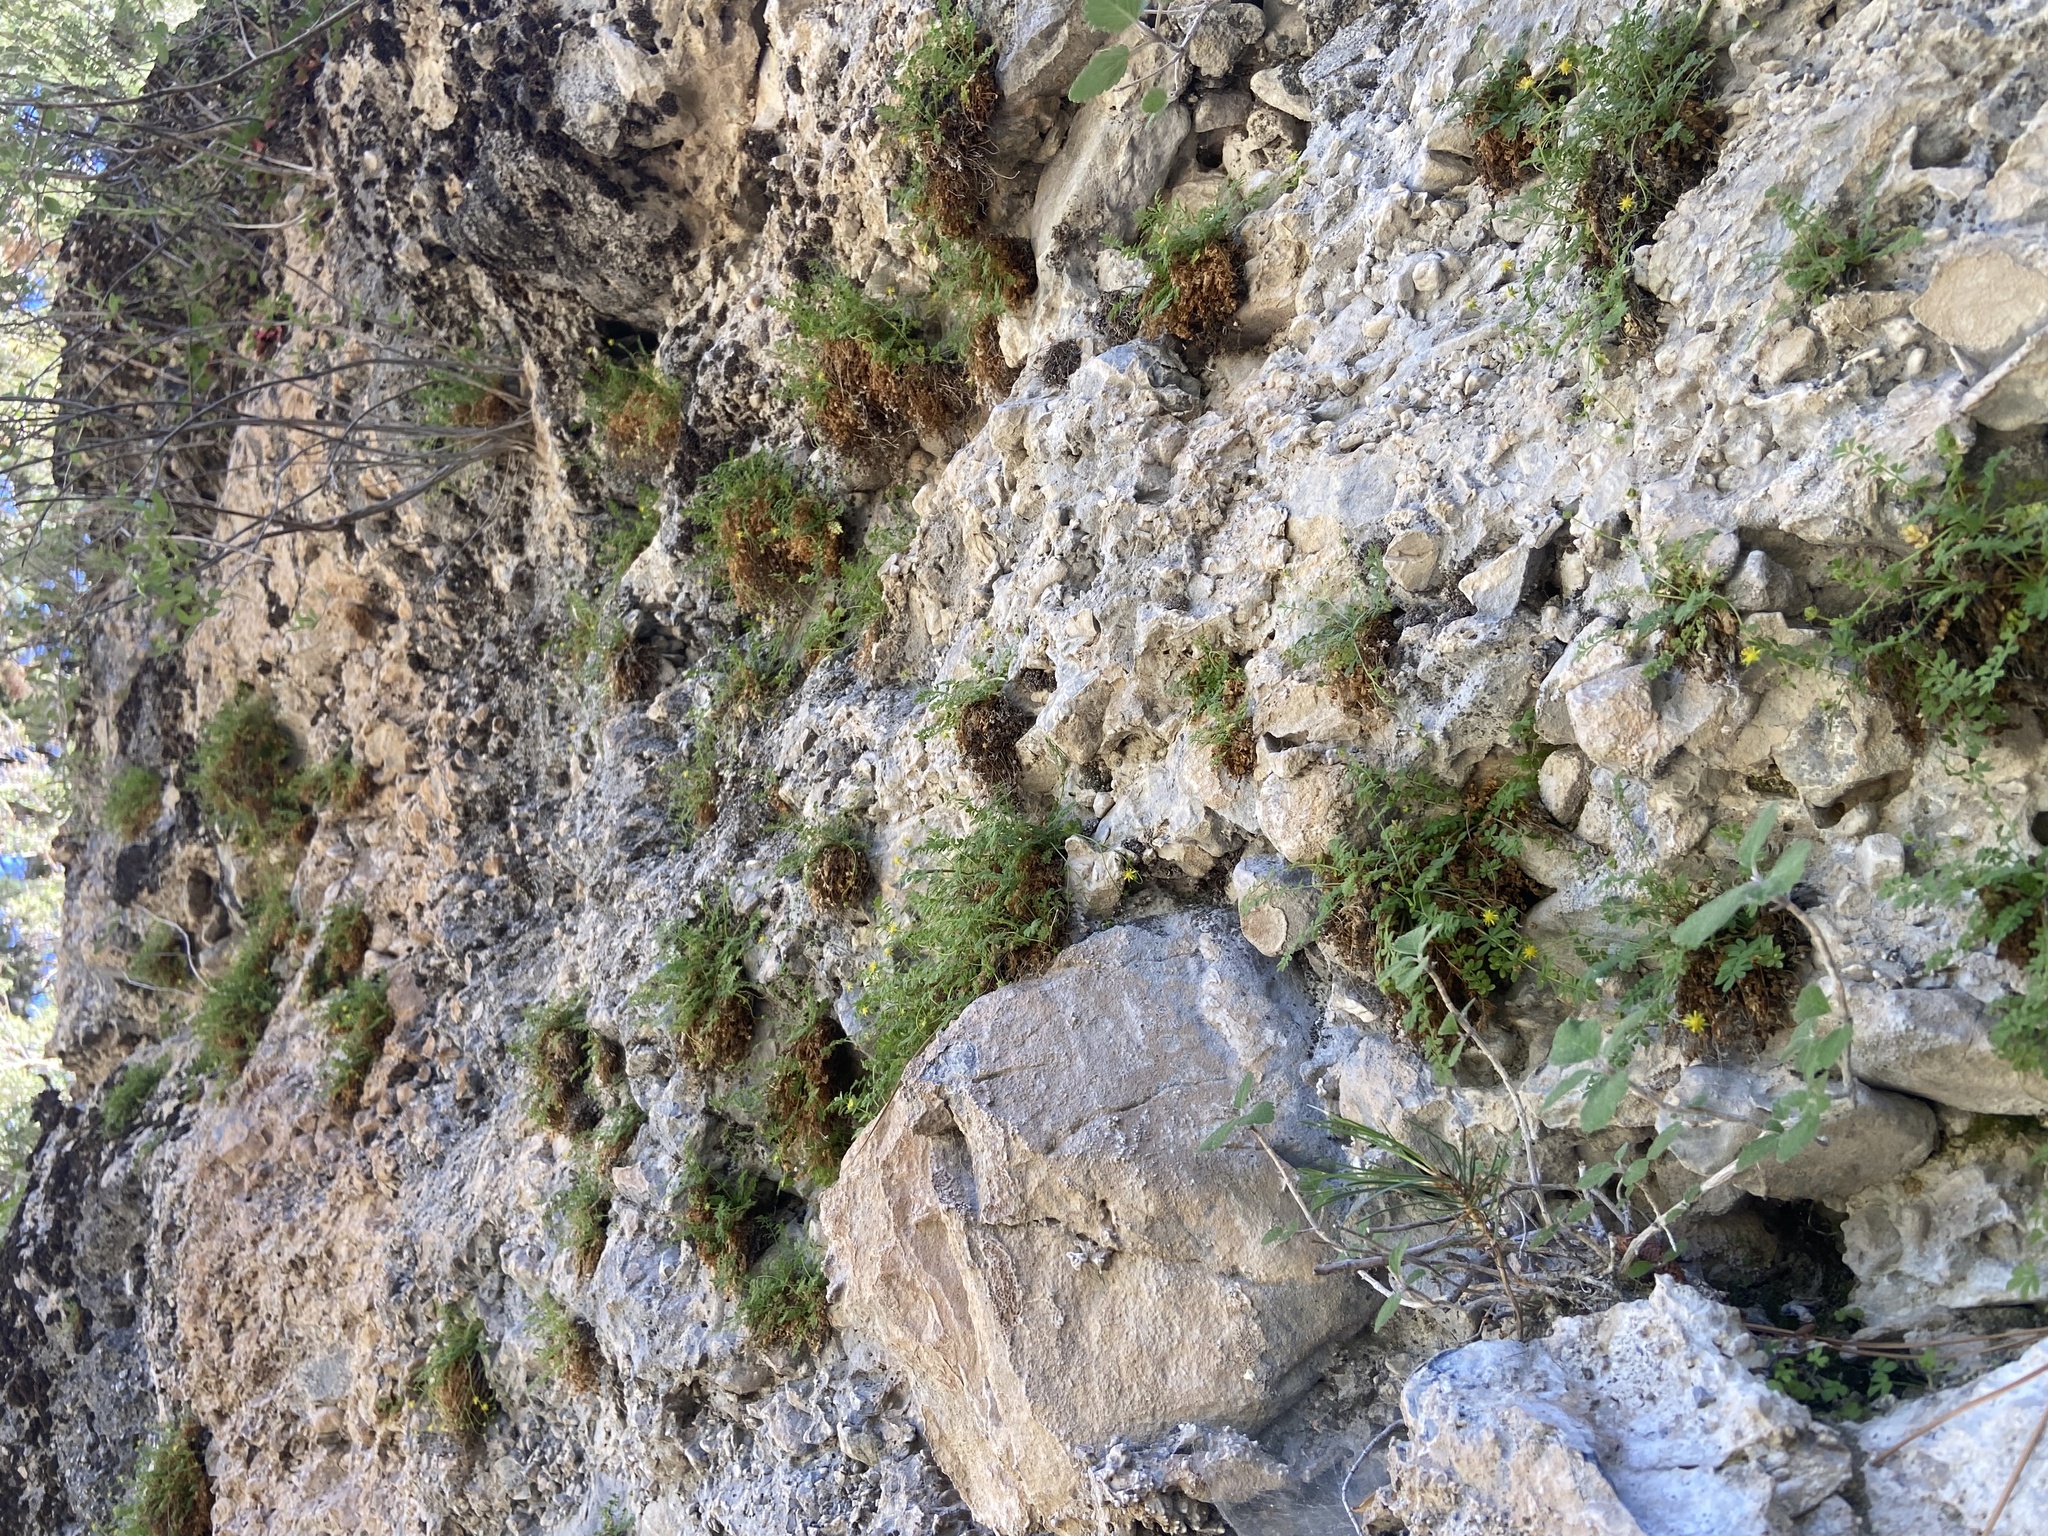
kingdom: Plantae
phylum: Tracheophyta
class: Magnoliopsida
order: Rosales
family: Rosaceae
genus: Potentilla
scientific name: Potentilla jaegeri
